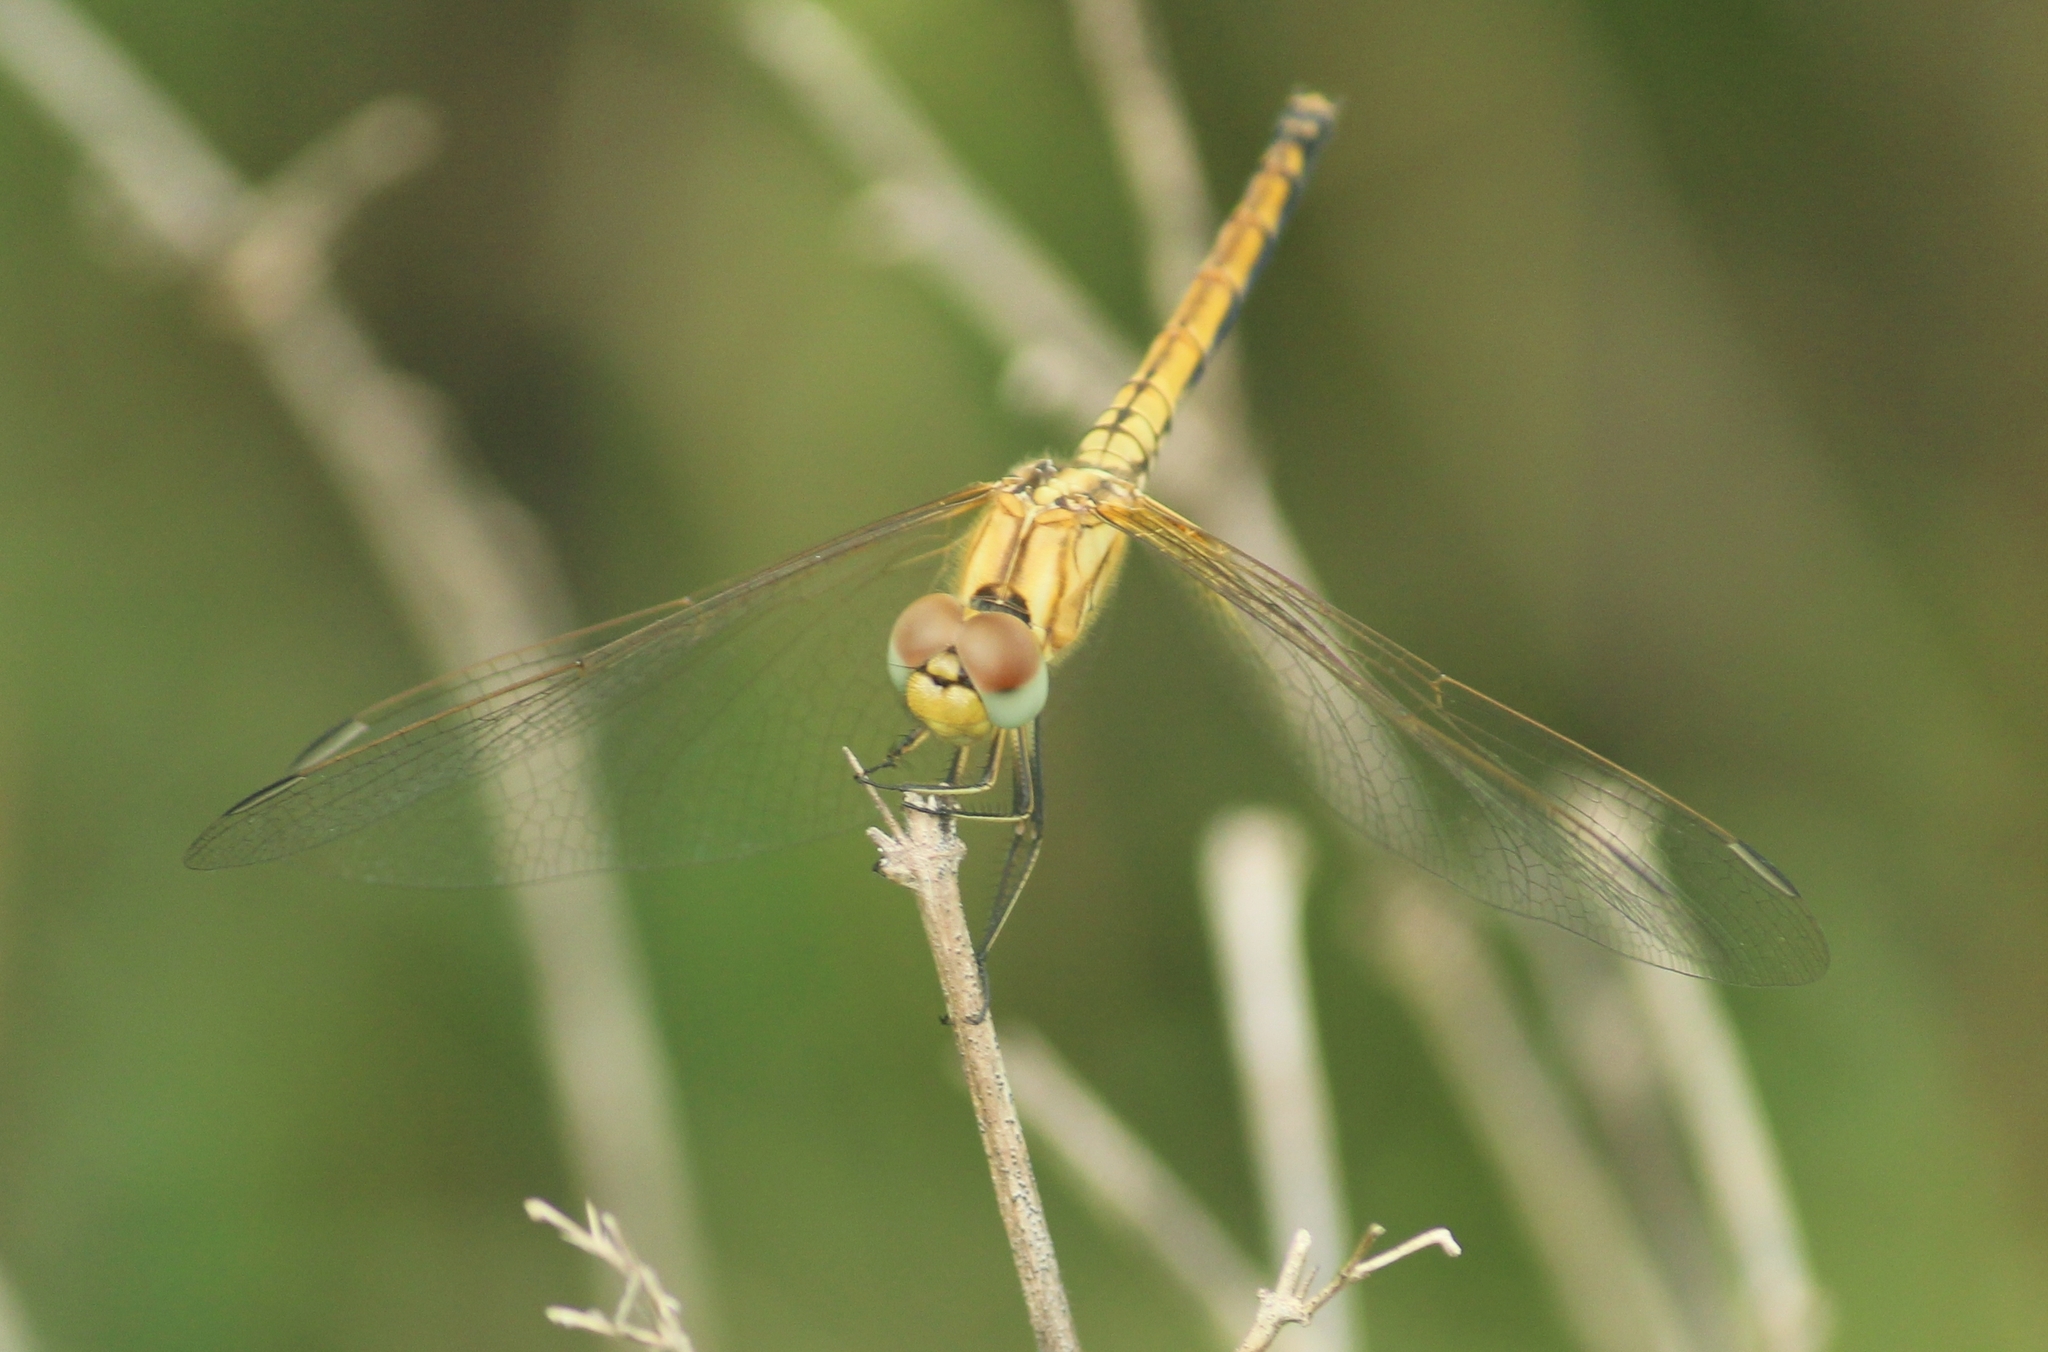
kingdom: Animalia
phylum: Arthropoda
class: Insecta
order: Odonata
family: Libellulidae
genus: Trithemis
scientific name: Trithemis aurora
